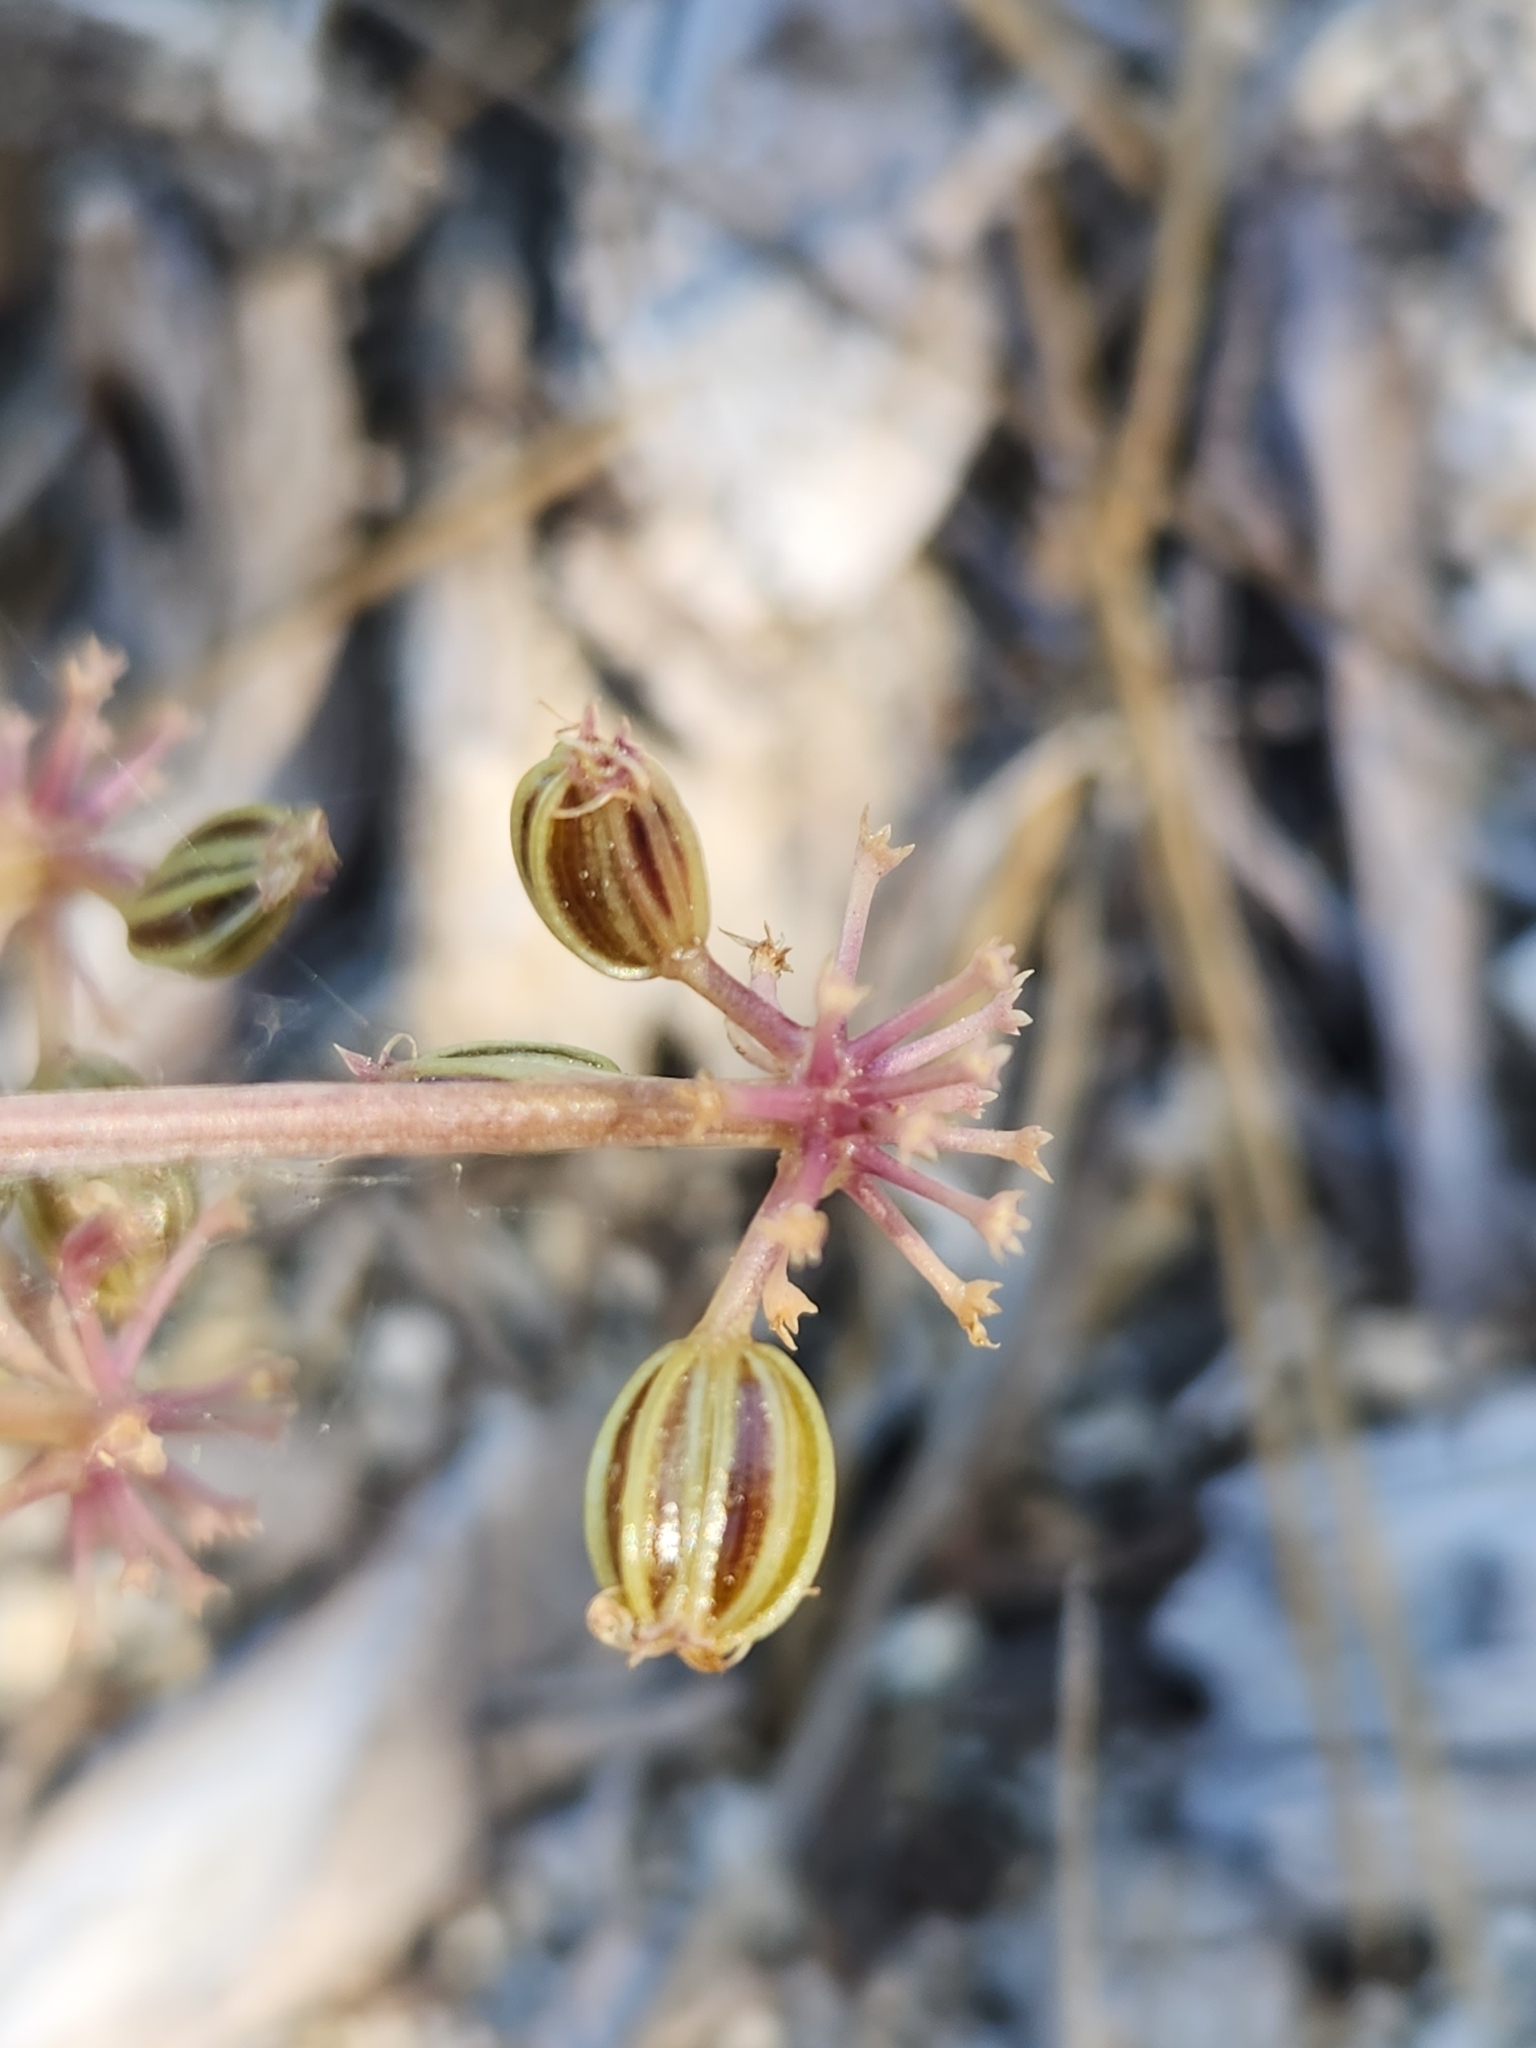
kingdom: Plantae
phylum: Tracheophyta
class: Magnoliopsida
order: Apiales
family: Apiaceae
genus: Tauschia
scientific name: Tauschia parishii
